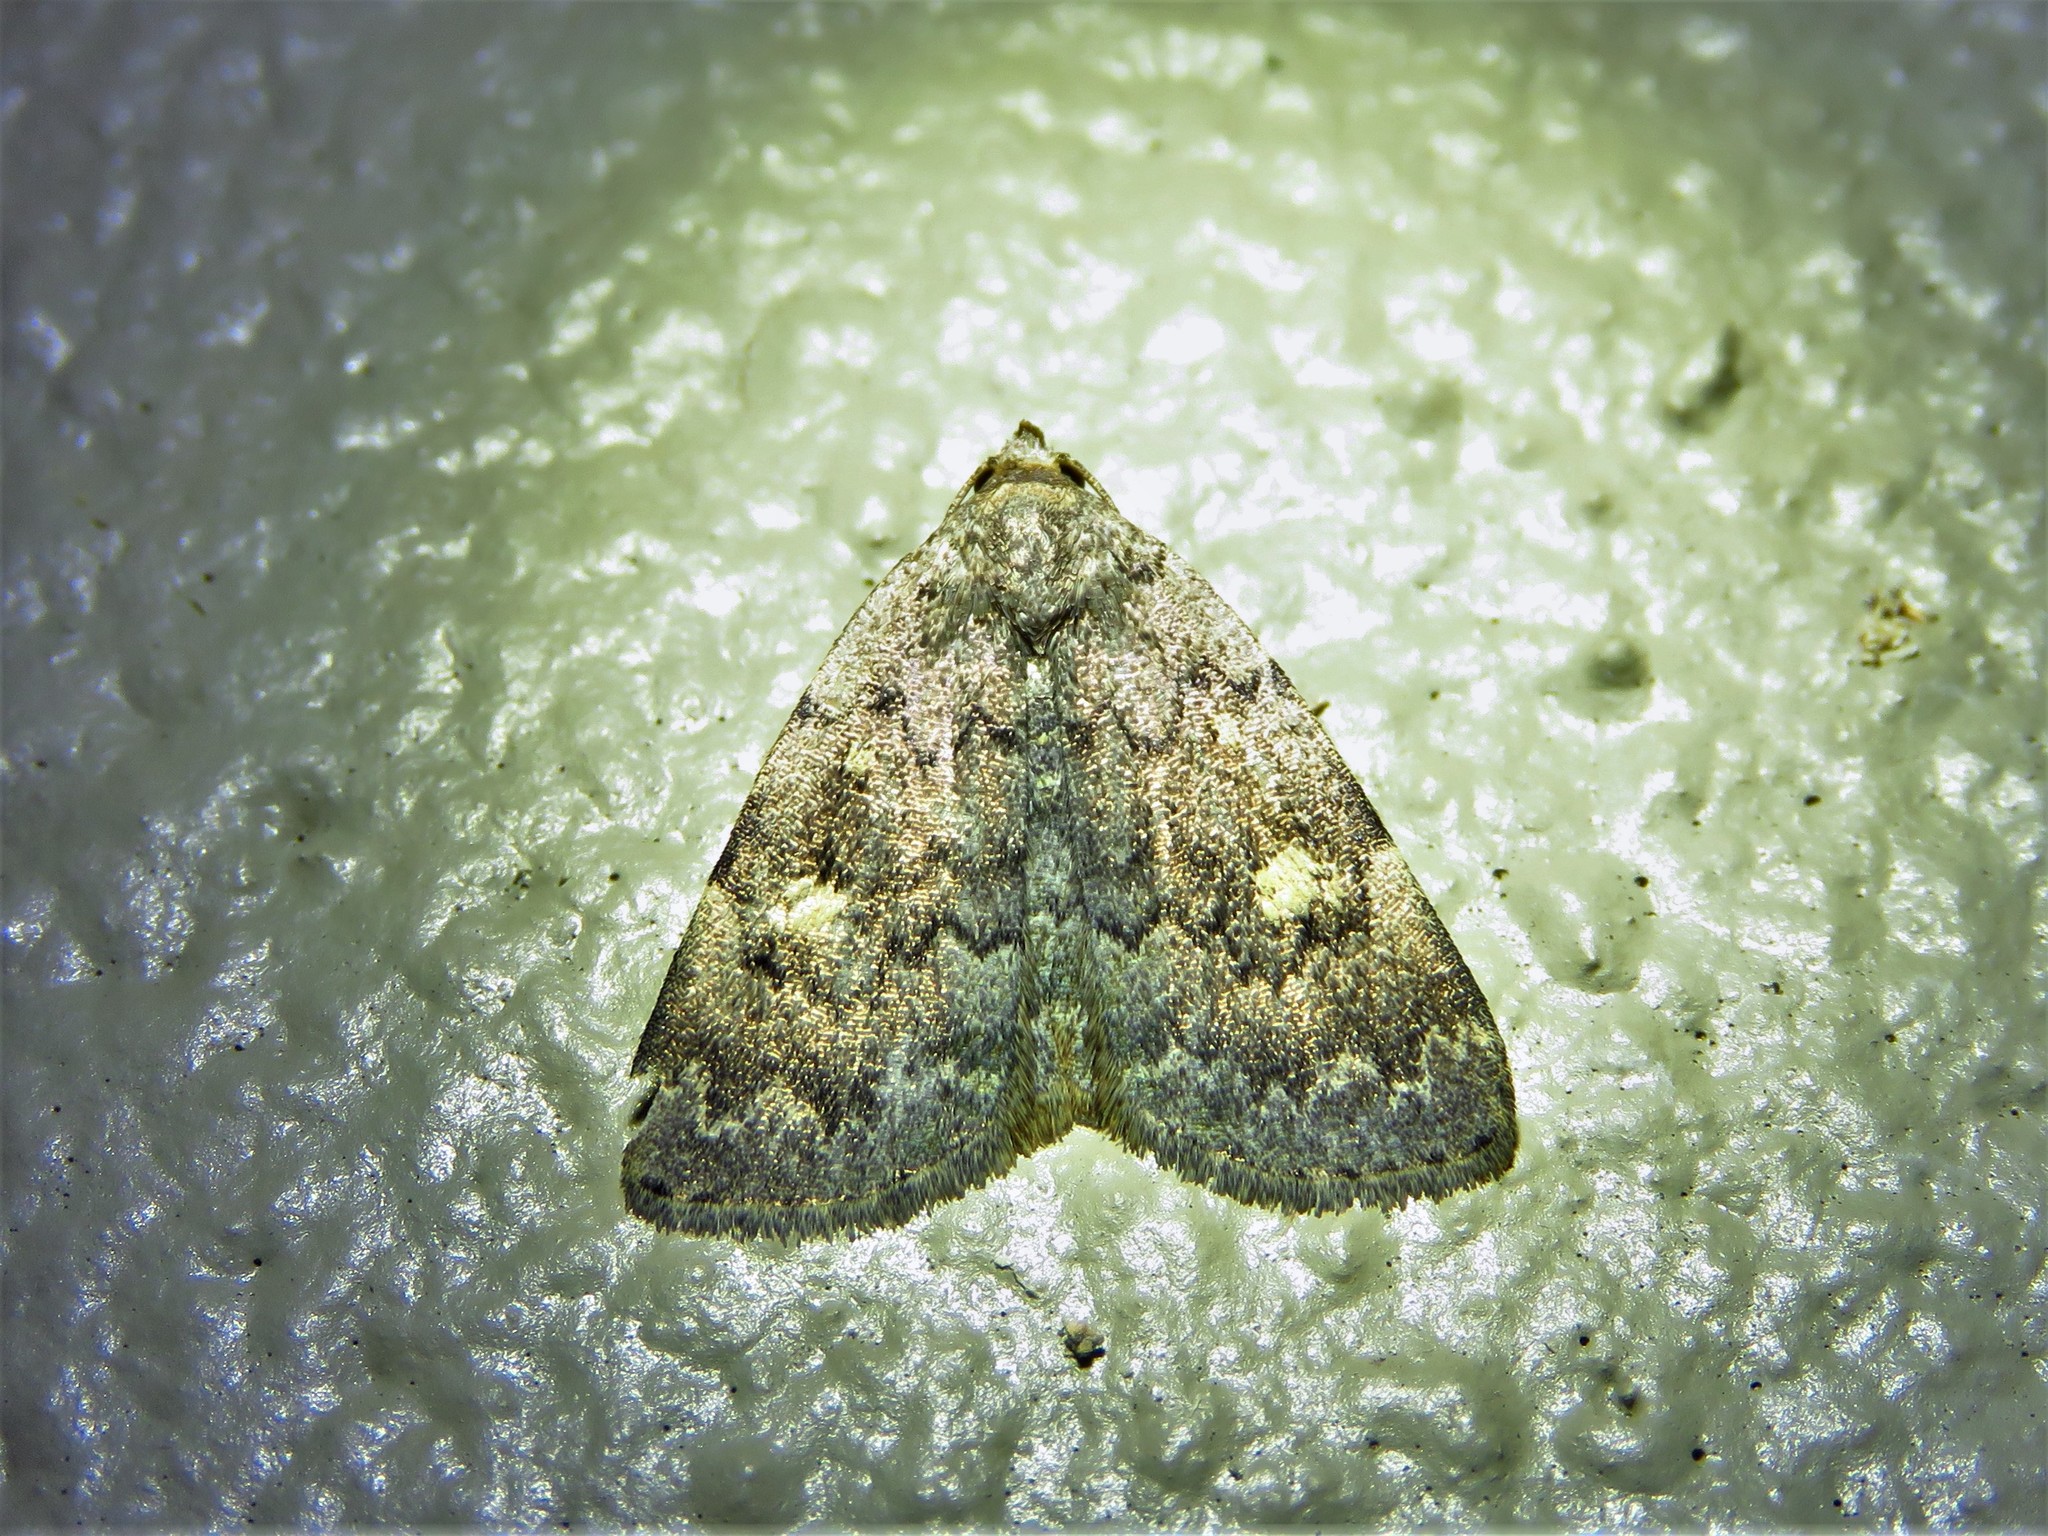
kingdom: Animalia
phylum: Arthropoda
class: Insecta
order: Lepidoptera
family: Erebidae
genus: Idia
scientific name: Idia aemula
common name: Common idia moth
